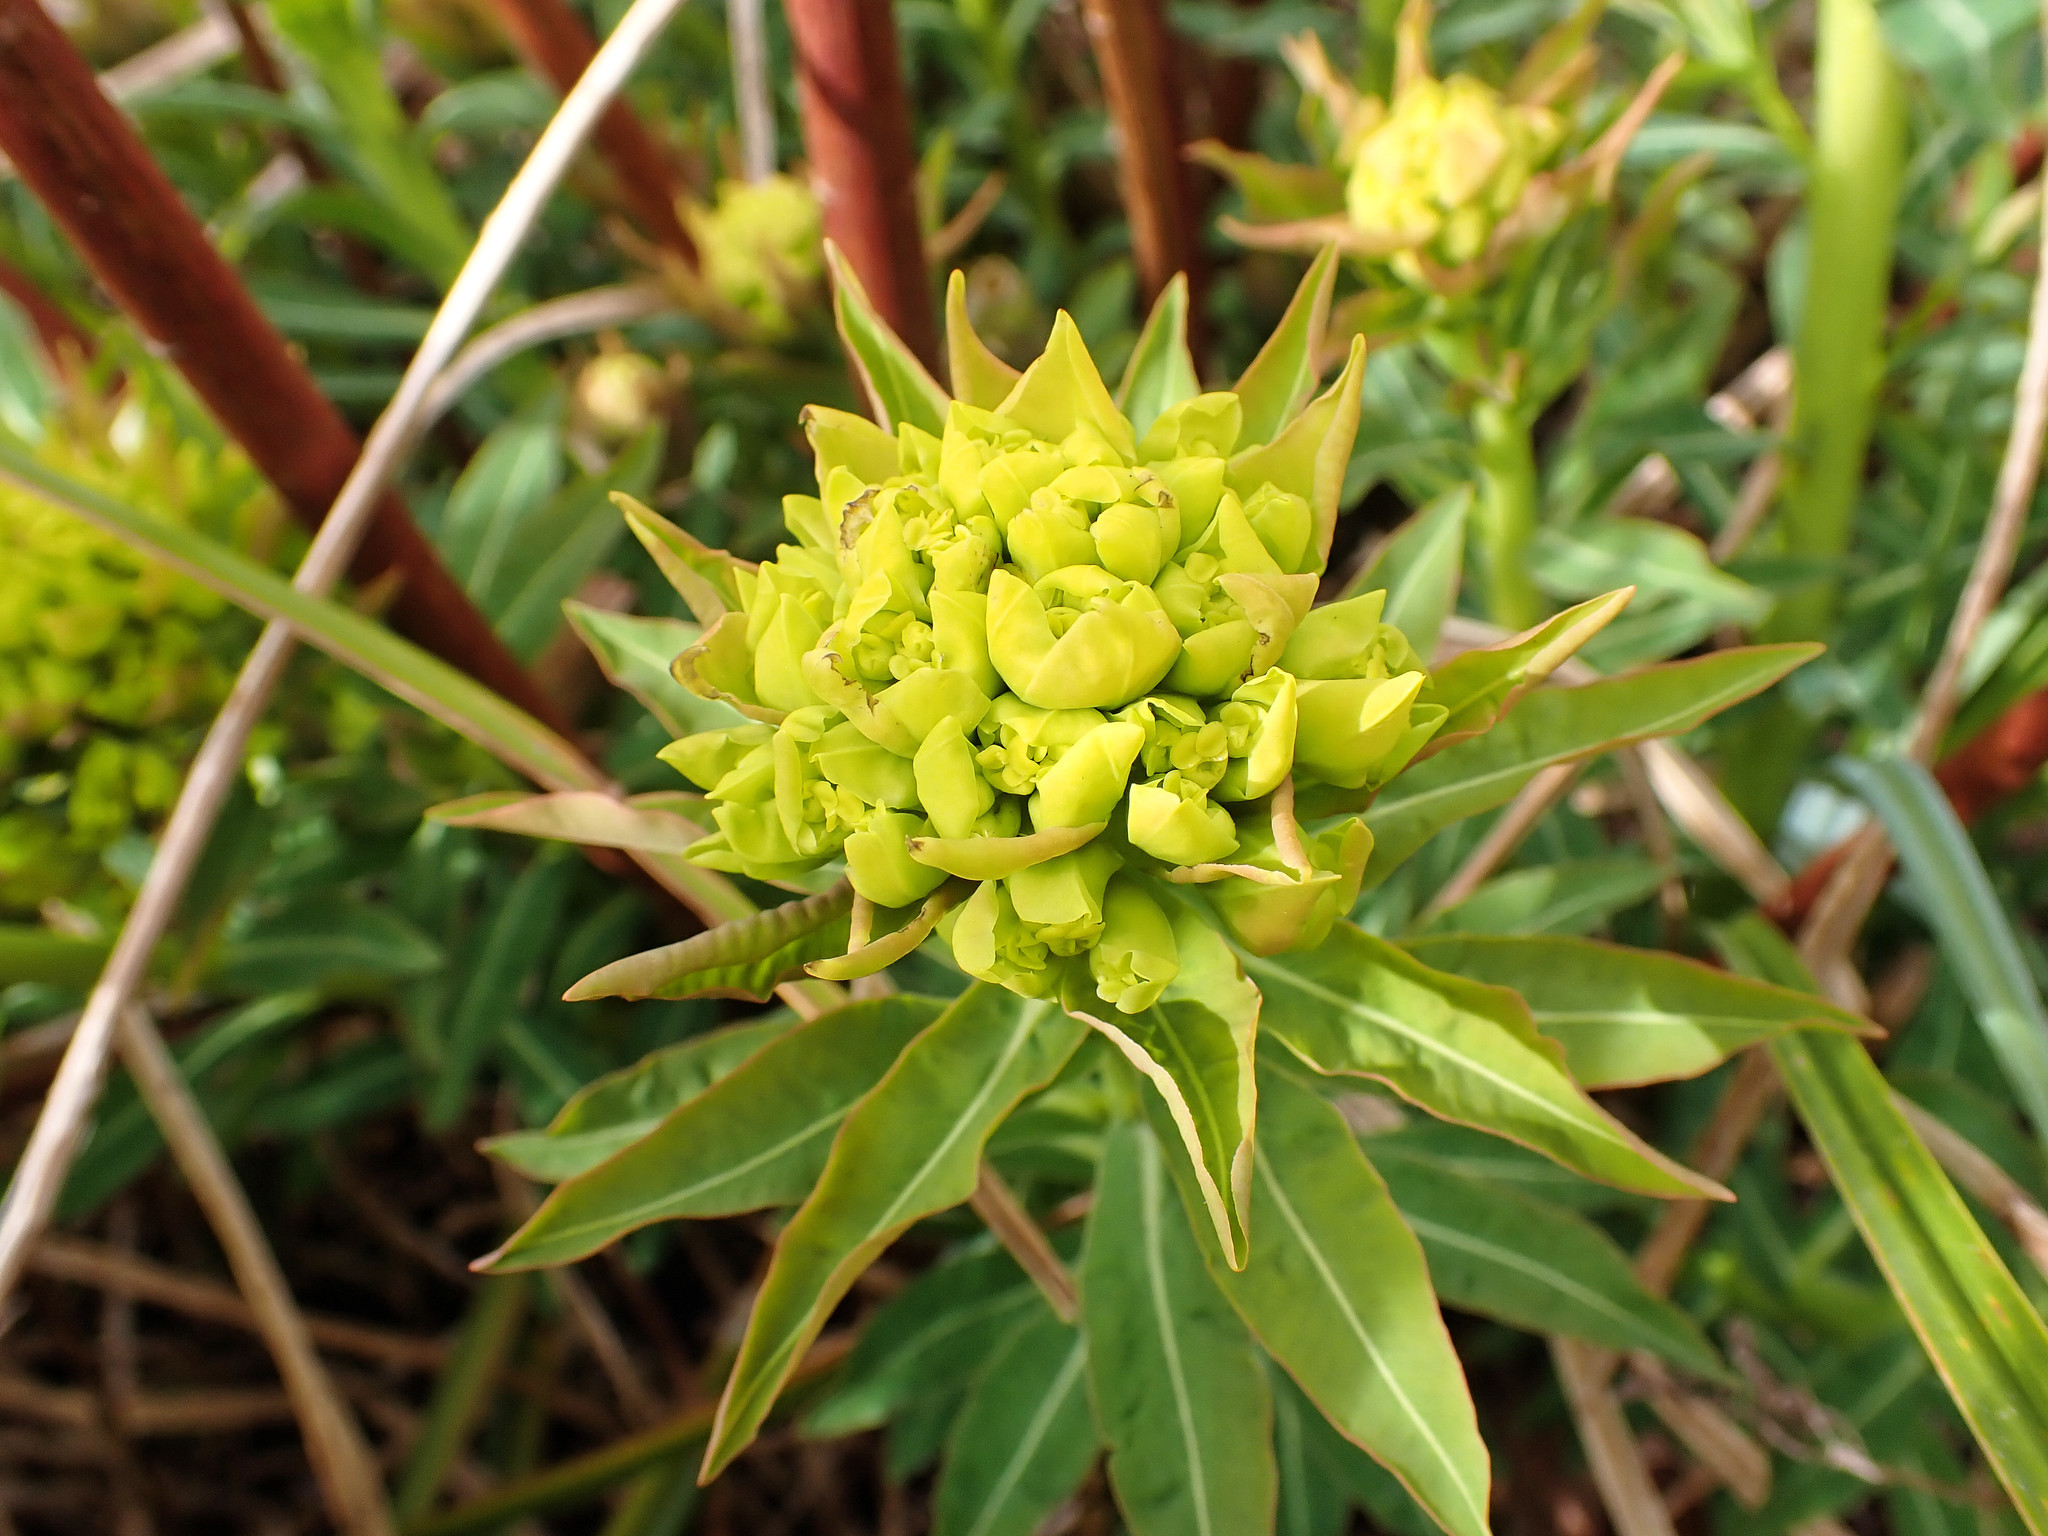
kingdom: Plantae
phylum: Tracheophyta
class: Magnoliopsida
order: Malpighiales
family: Euphorbiaceae
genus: Euphorbia
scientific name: Euphorbia palustris
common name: Marsh spurge
